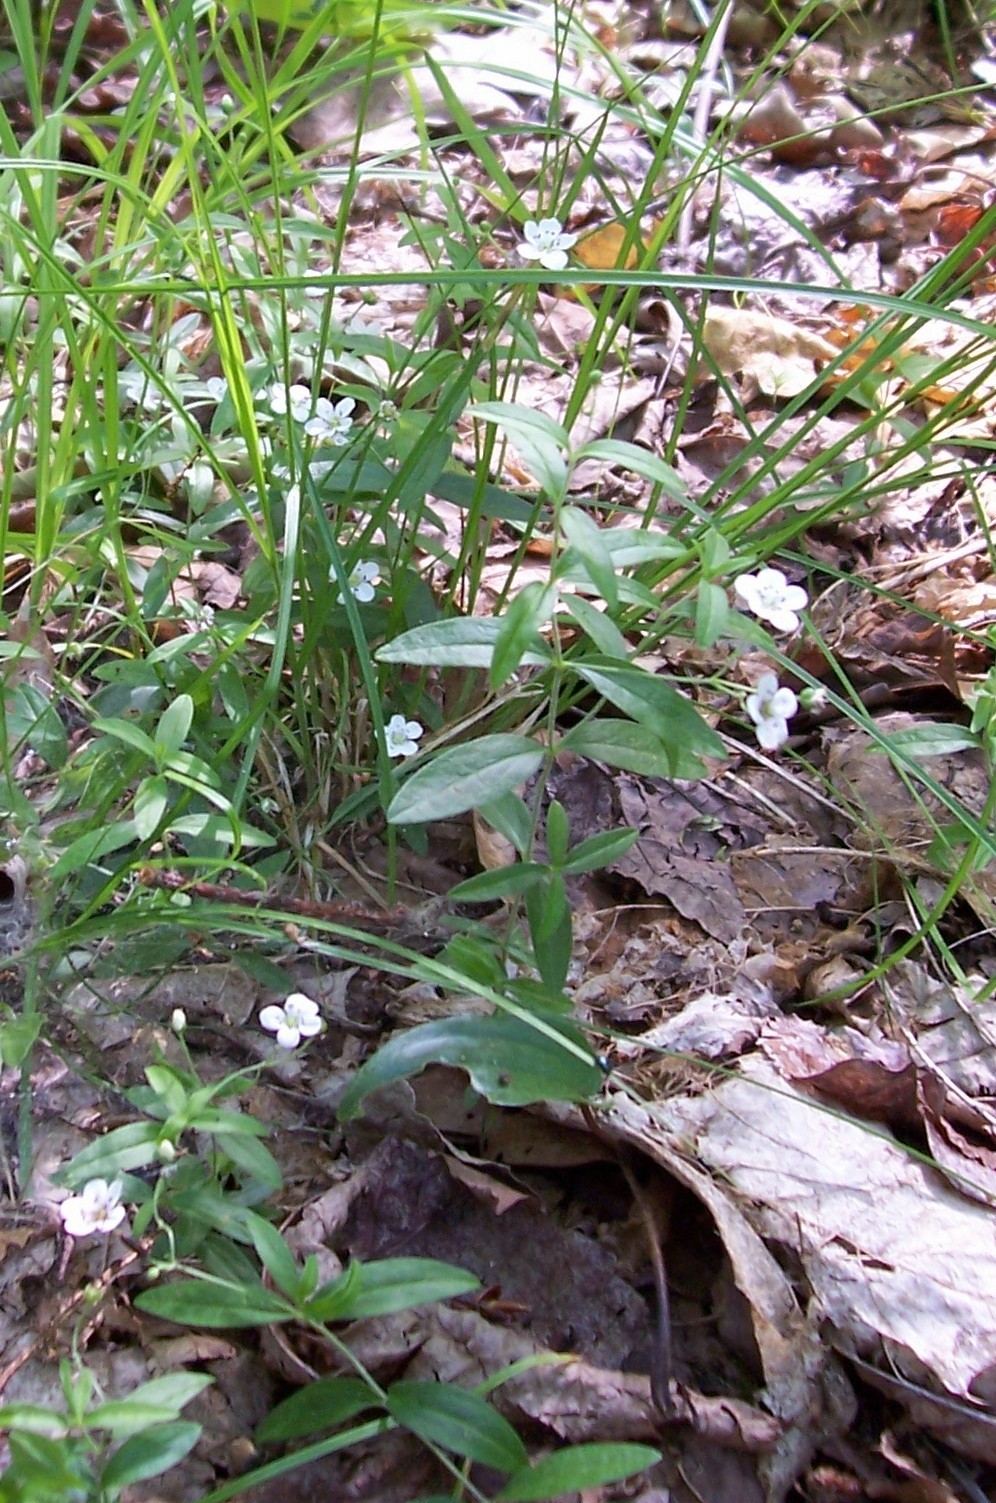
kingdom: Plantae
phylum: Tracheophyta
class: Magnoliopsida
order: Caryophyllales
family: Caryophyllaceae
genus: Moehringia
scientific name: Moehringia macrophylla
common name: Big-leaf sandwort
